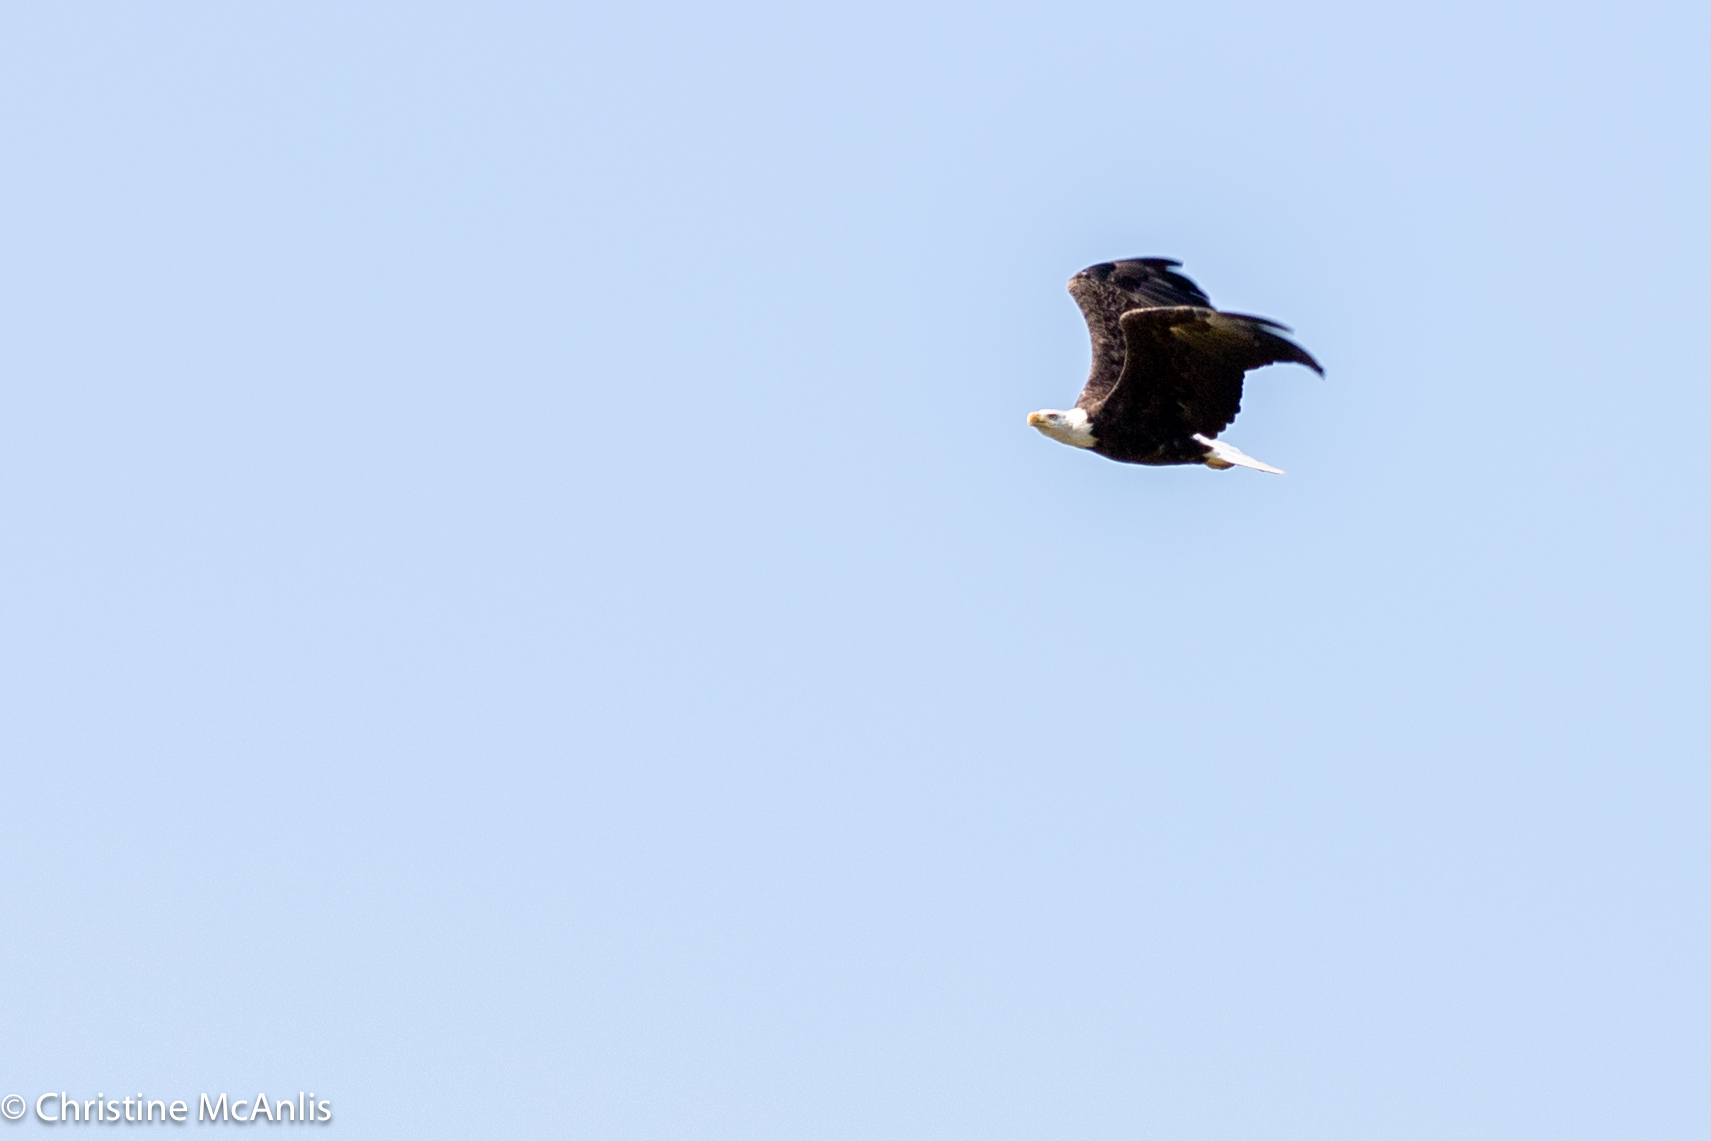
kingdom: Animalia
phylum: Chordata
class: Aves
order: Accipitriformes
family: Accipitridae
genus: Haliaeetus
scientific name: Haliaeetus leucocephalus
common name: Bald eagle
